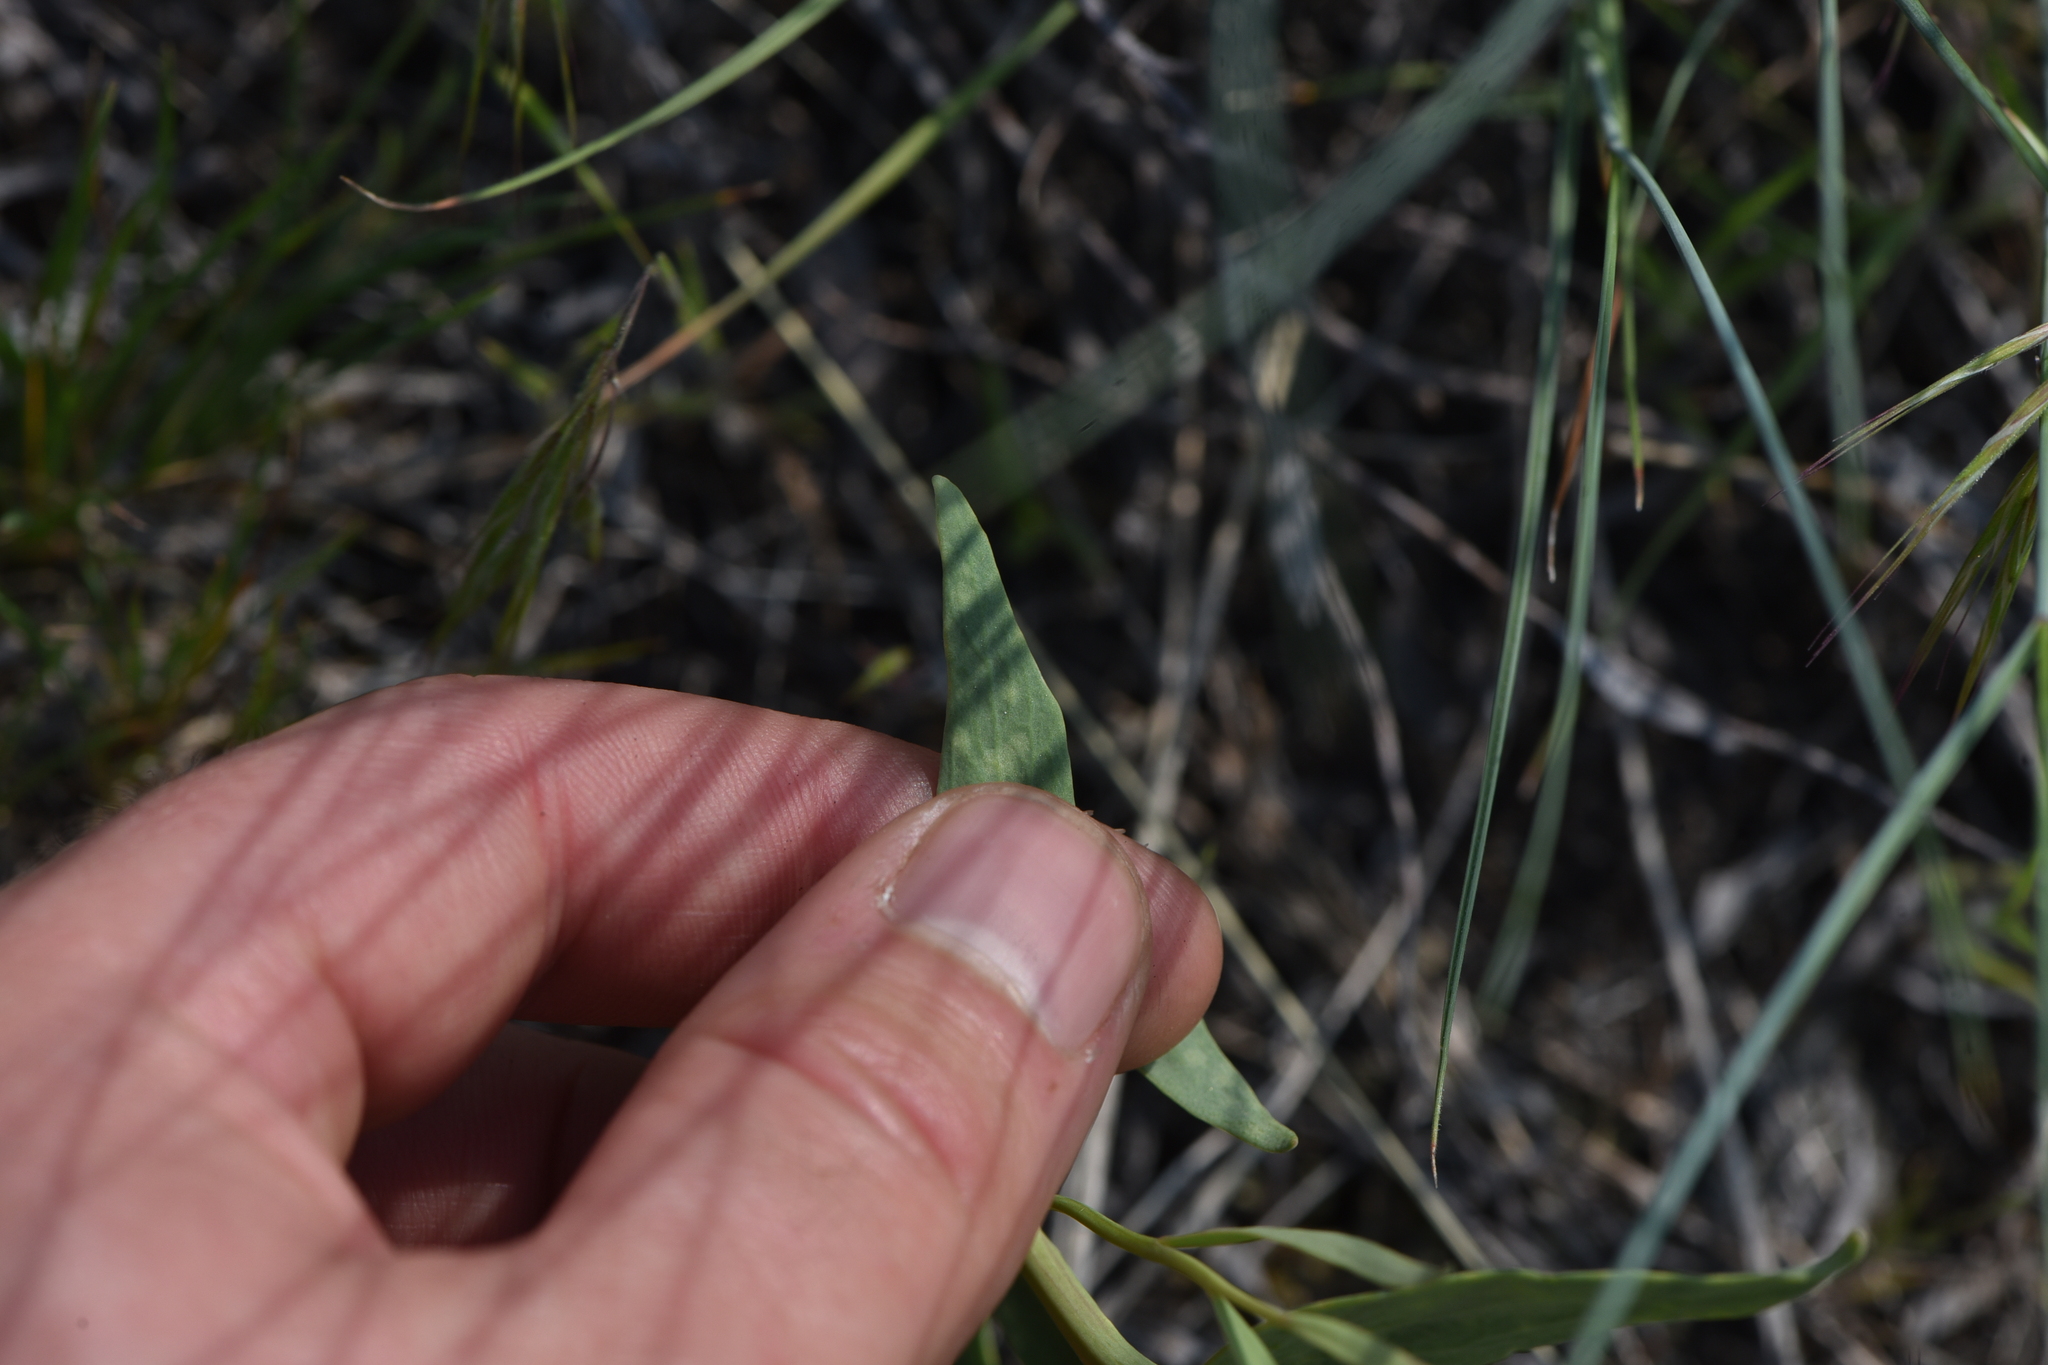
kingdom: Plantae
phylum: Tracheophyta
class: Magnoliopsida
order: Santalales
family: Comandraceae
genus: Comandra
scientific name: Comandra umbellata
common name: Bastard toadflax
